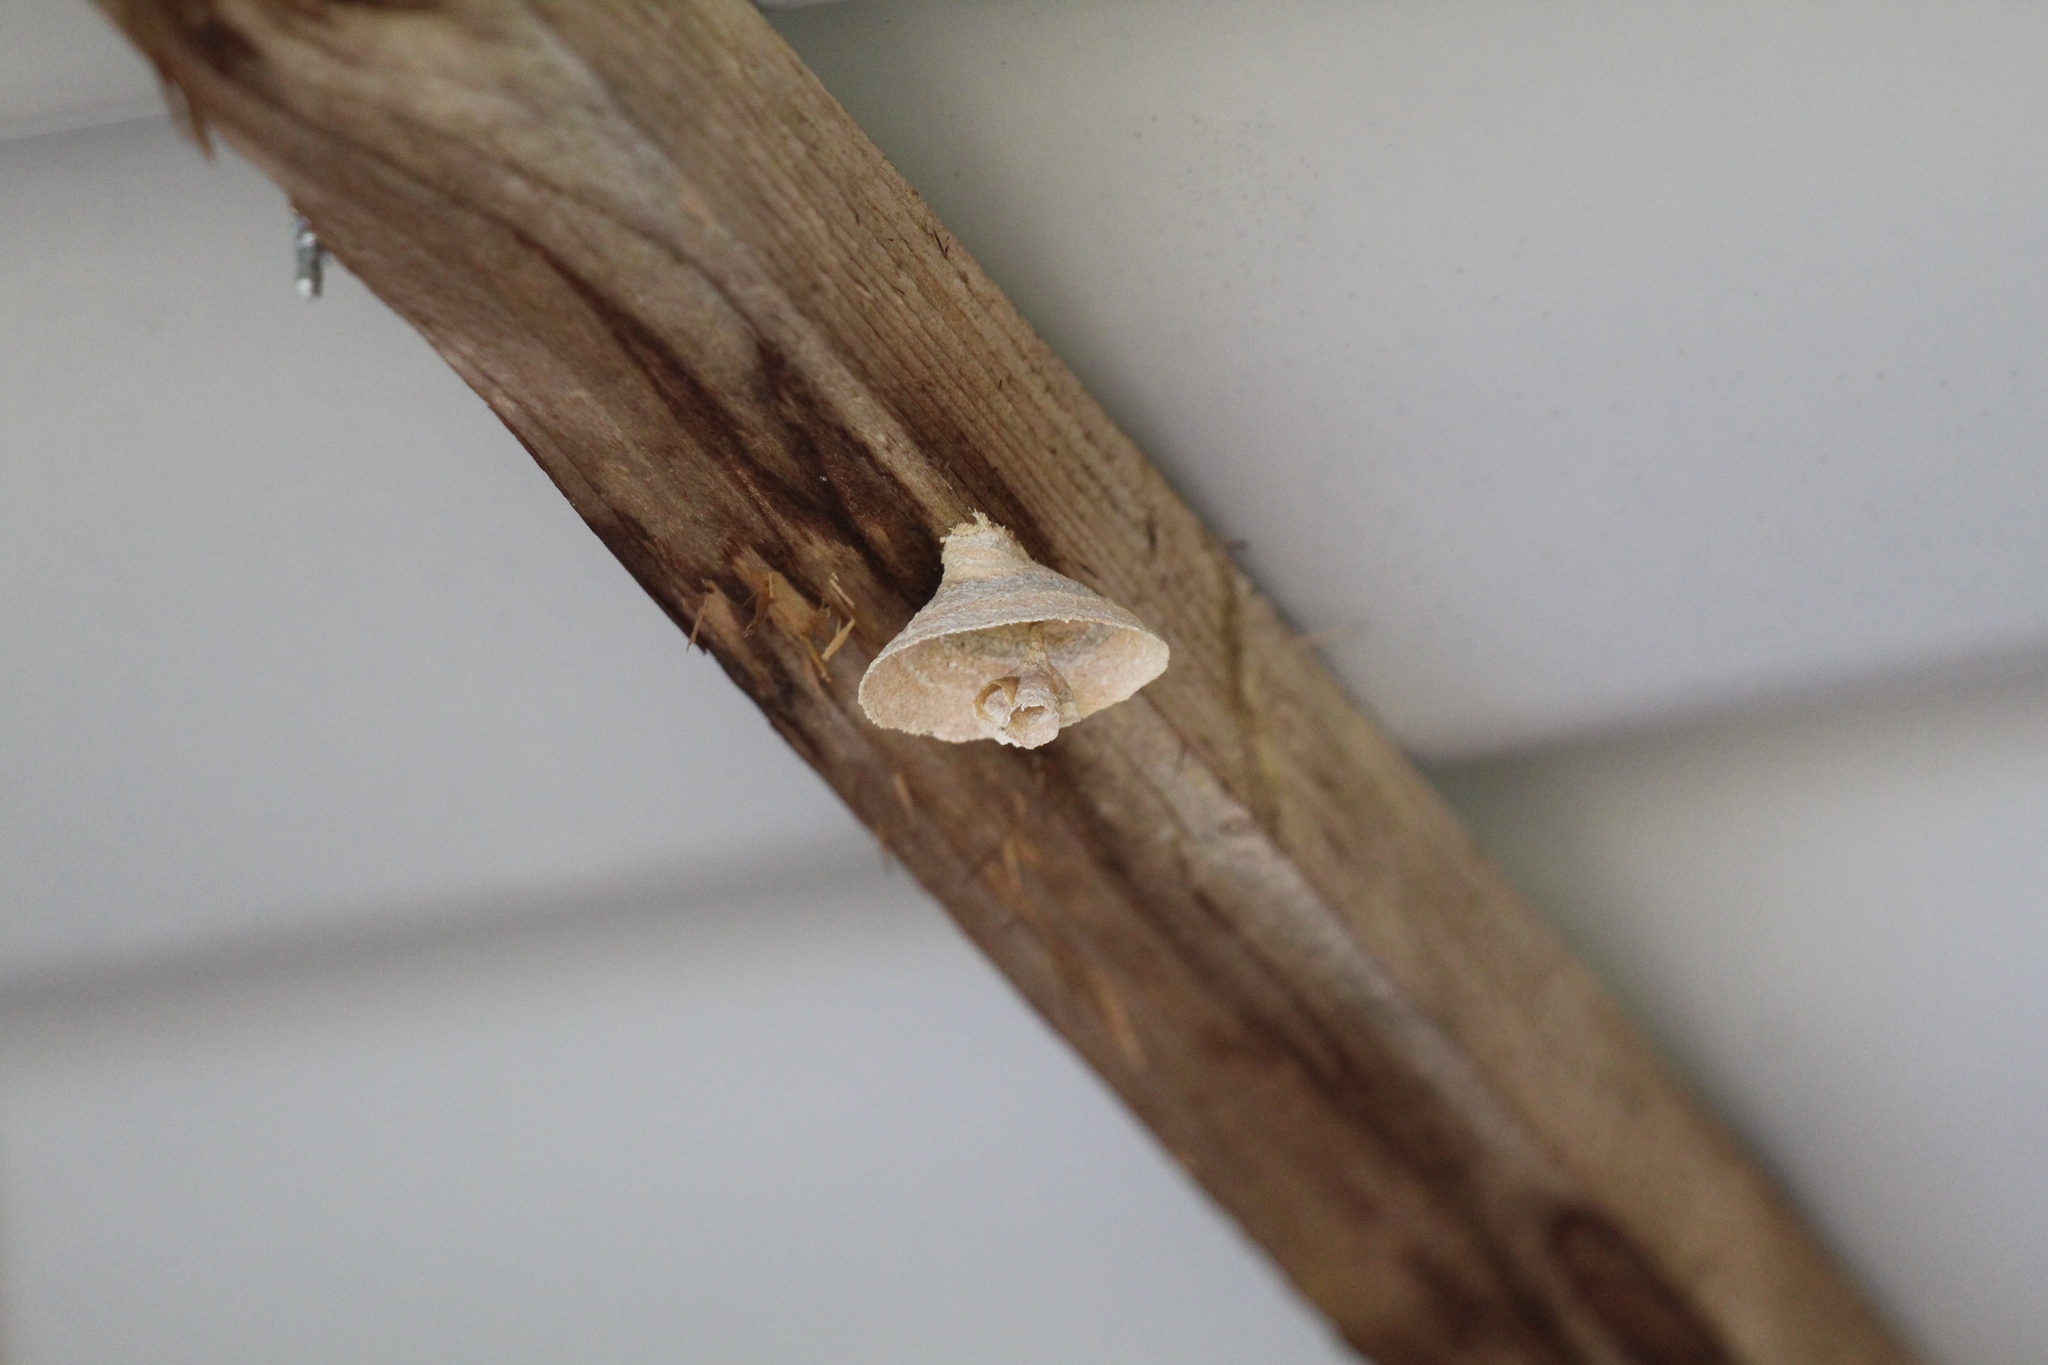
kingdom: Animalia
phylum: Arthropoda
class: Insecta
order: Hymenoptera
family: Vespidae
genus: Vespa
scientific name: Vespa velutina
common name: Asian hornet
